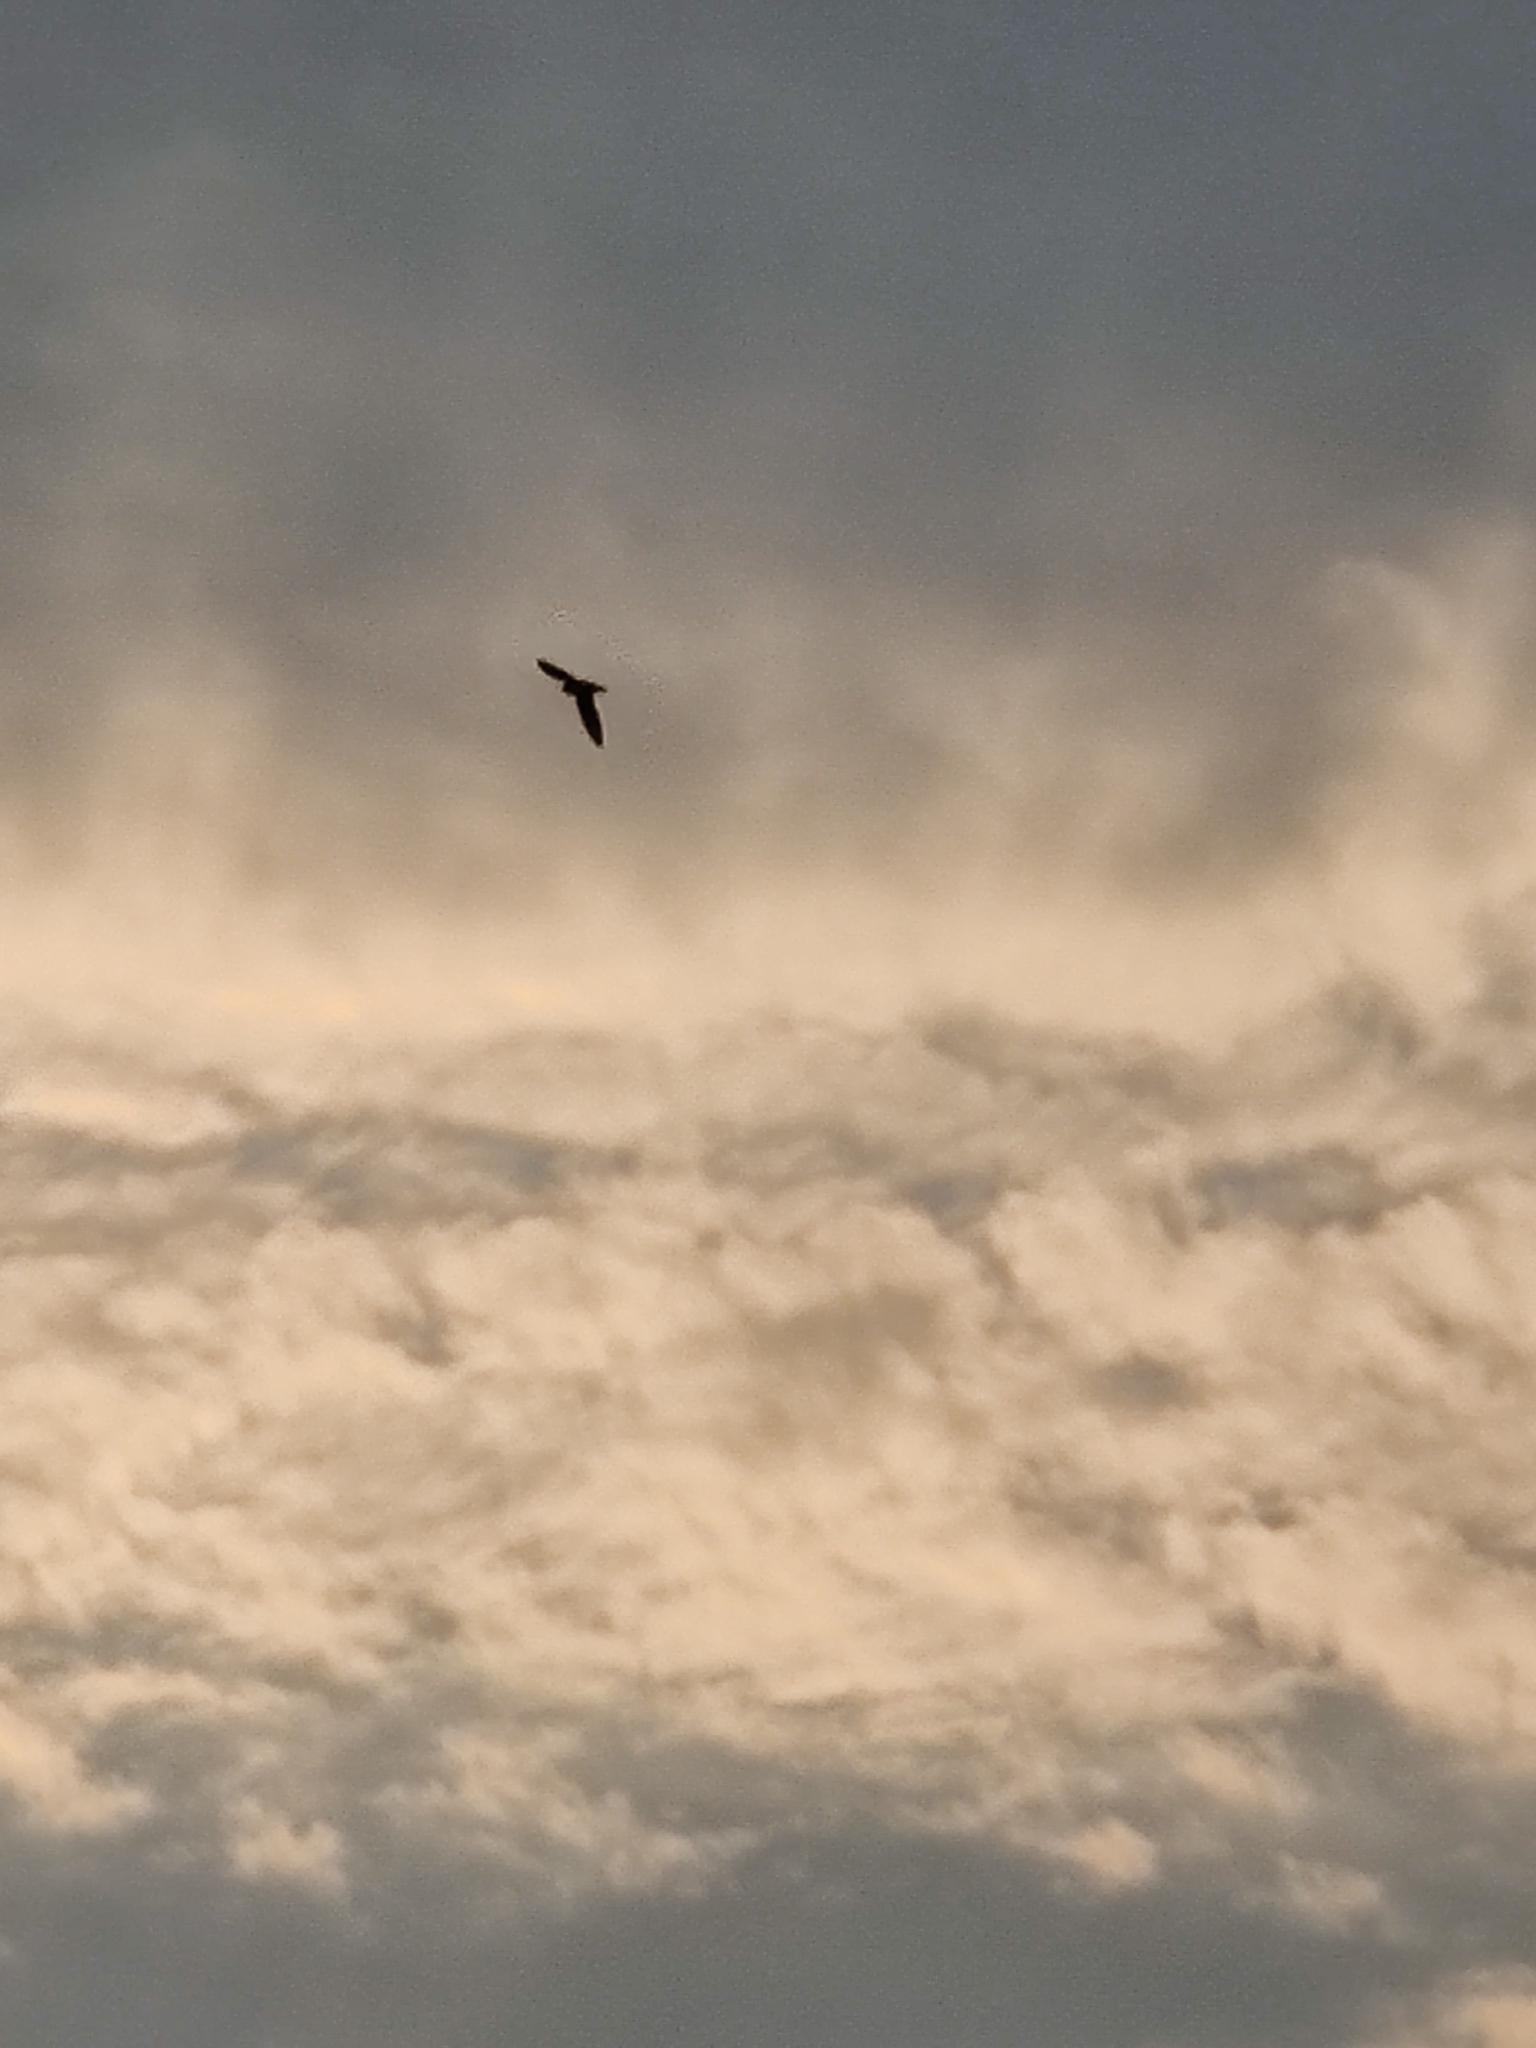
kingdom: Animalia
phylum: Chordata
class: Aves
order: Passeriformes
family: Hirundinidae
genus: Riparia
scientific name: Riparia riparia
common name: Sand martin
